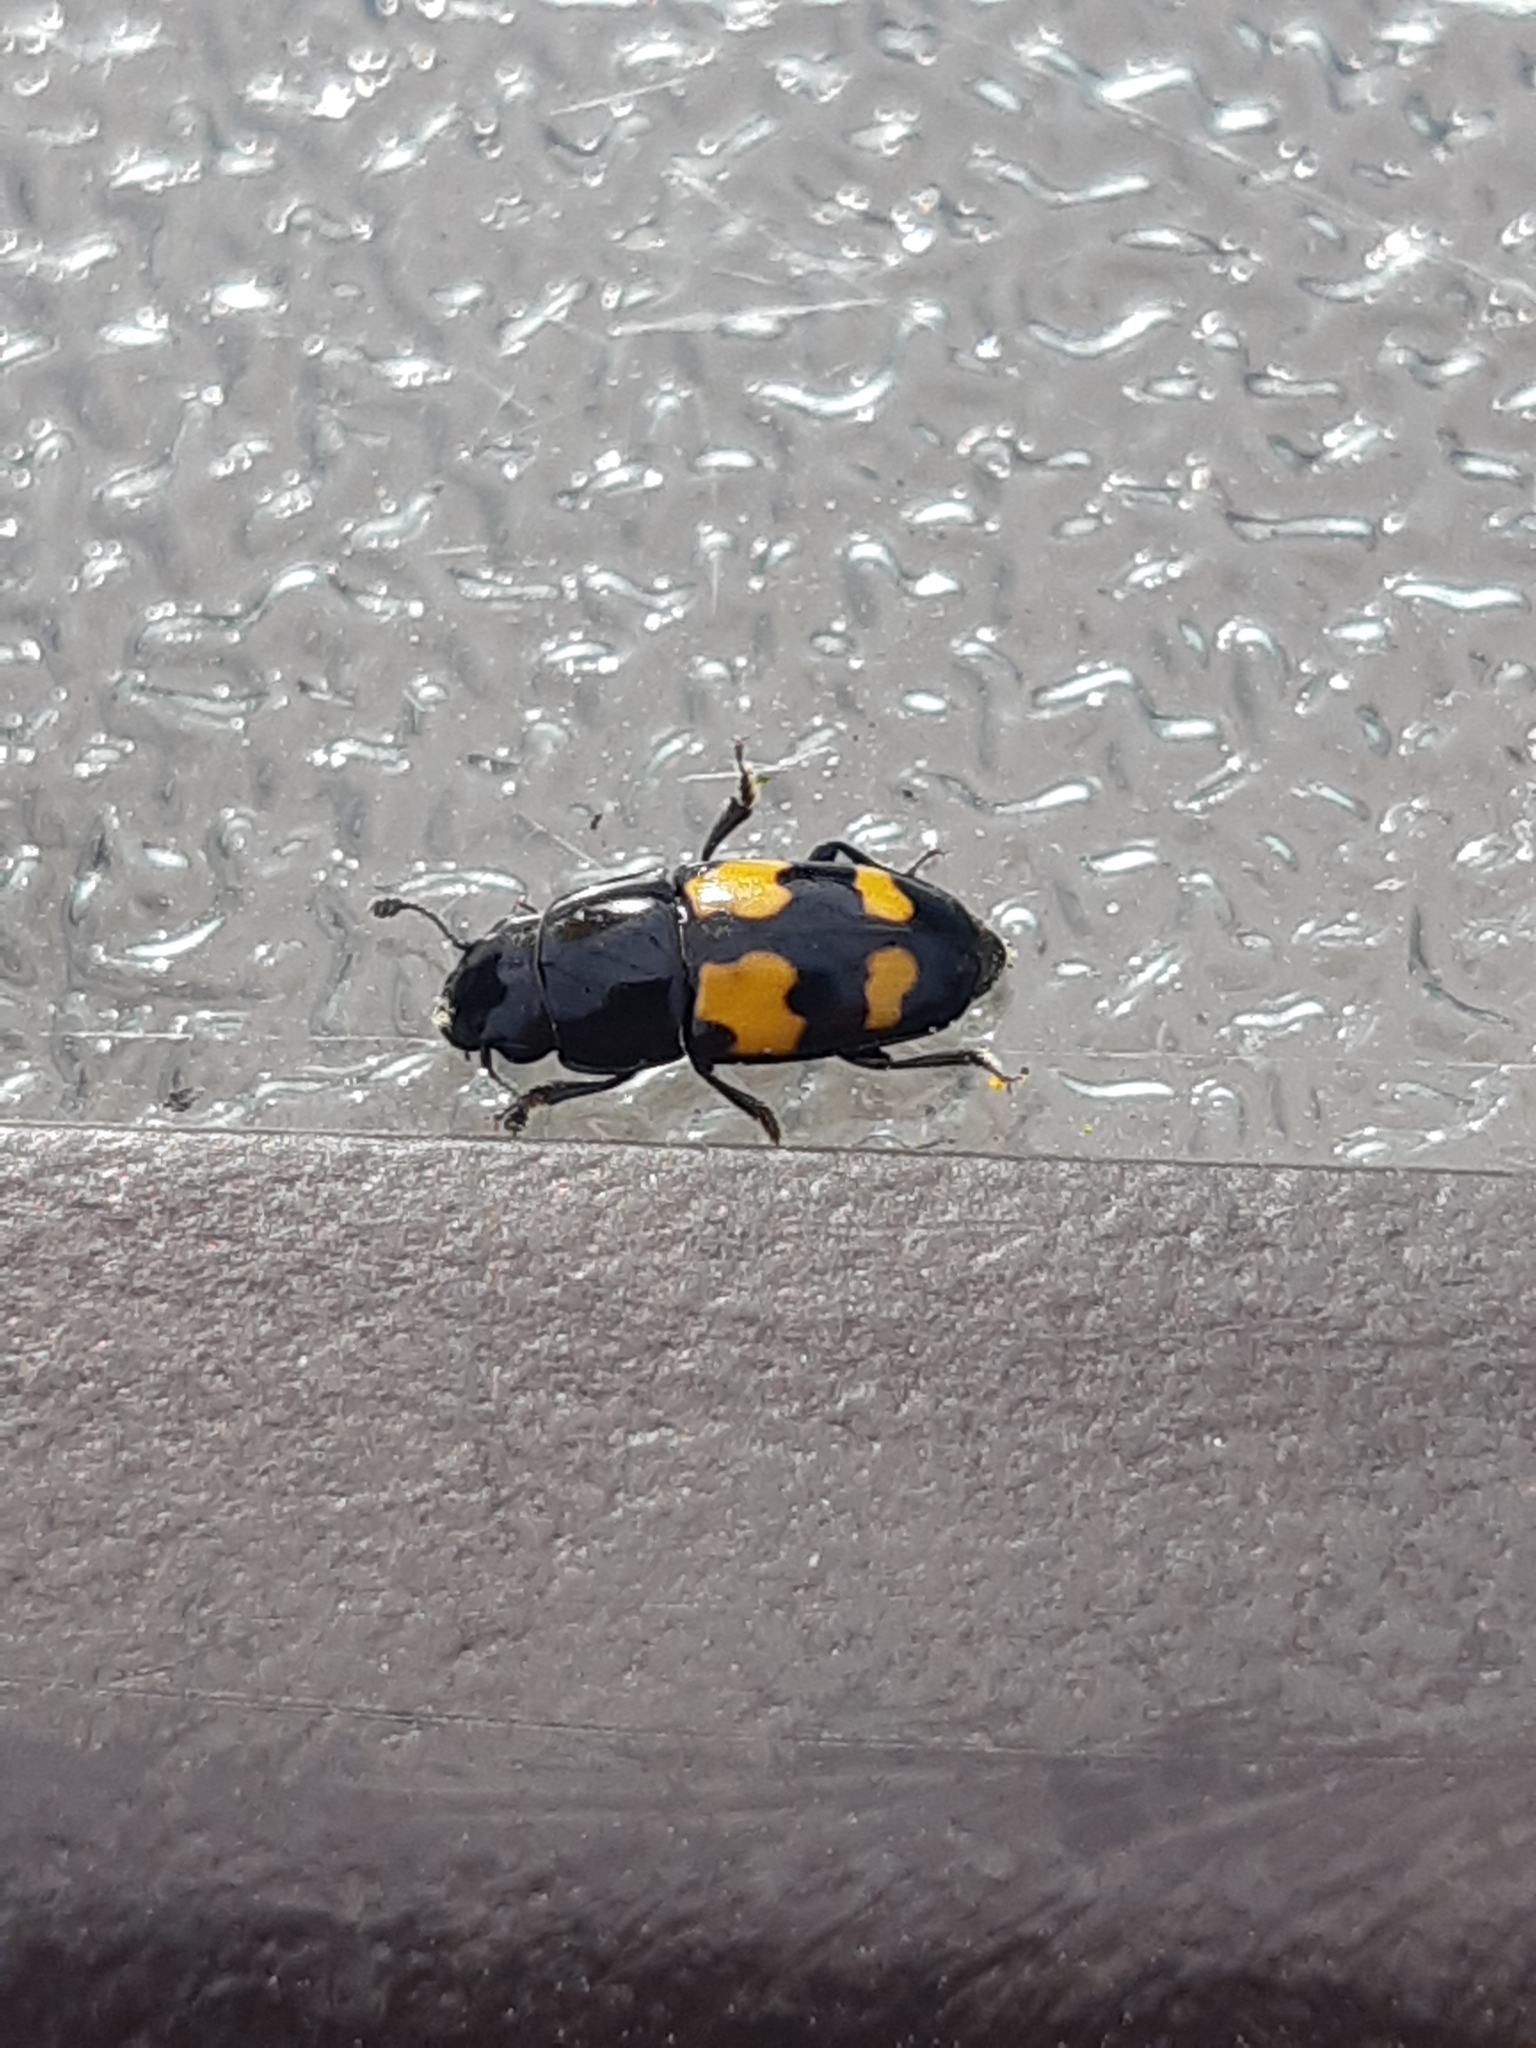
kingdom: Animalia
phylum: Arthropoda
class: Insecta
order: Coleoptera
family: Nitidulidae
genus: Glischrochilus
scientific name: Glischrochilus fasciatus
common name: Picnic beetle
